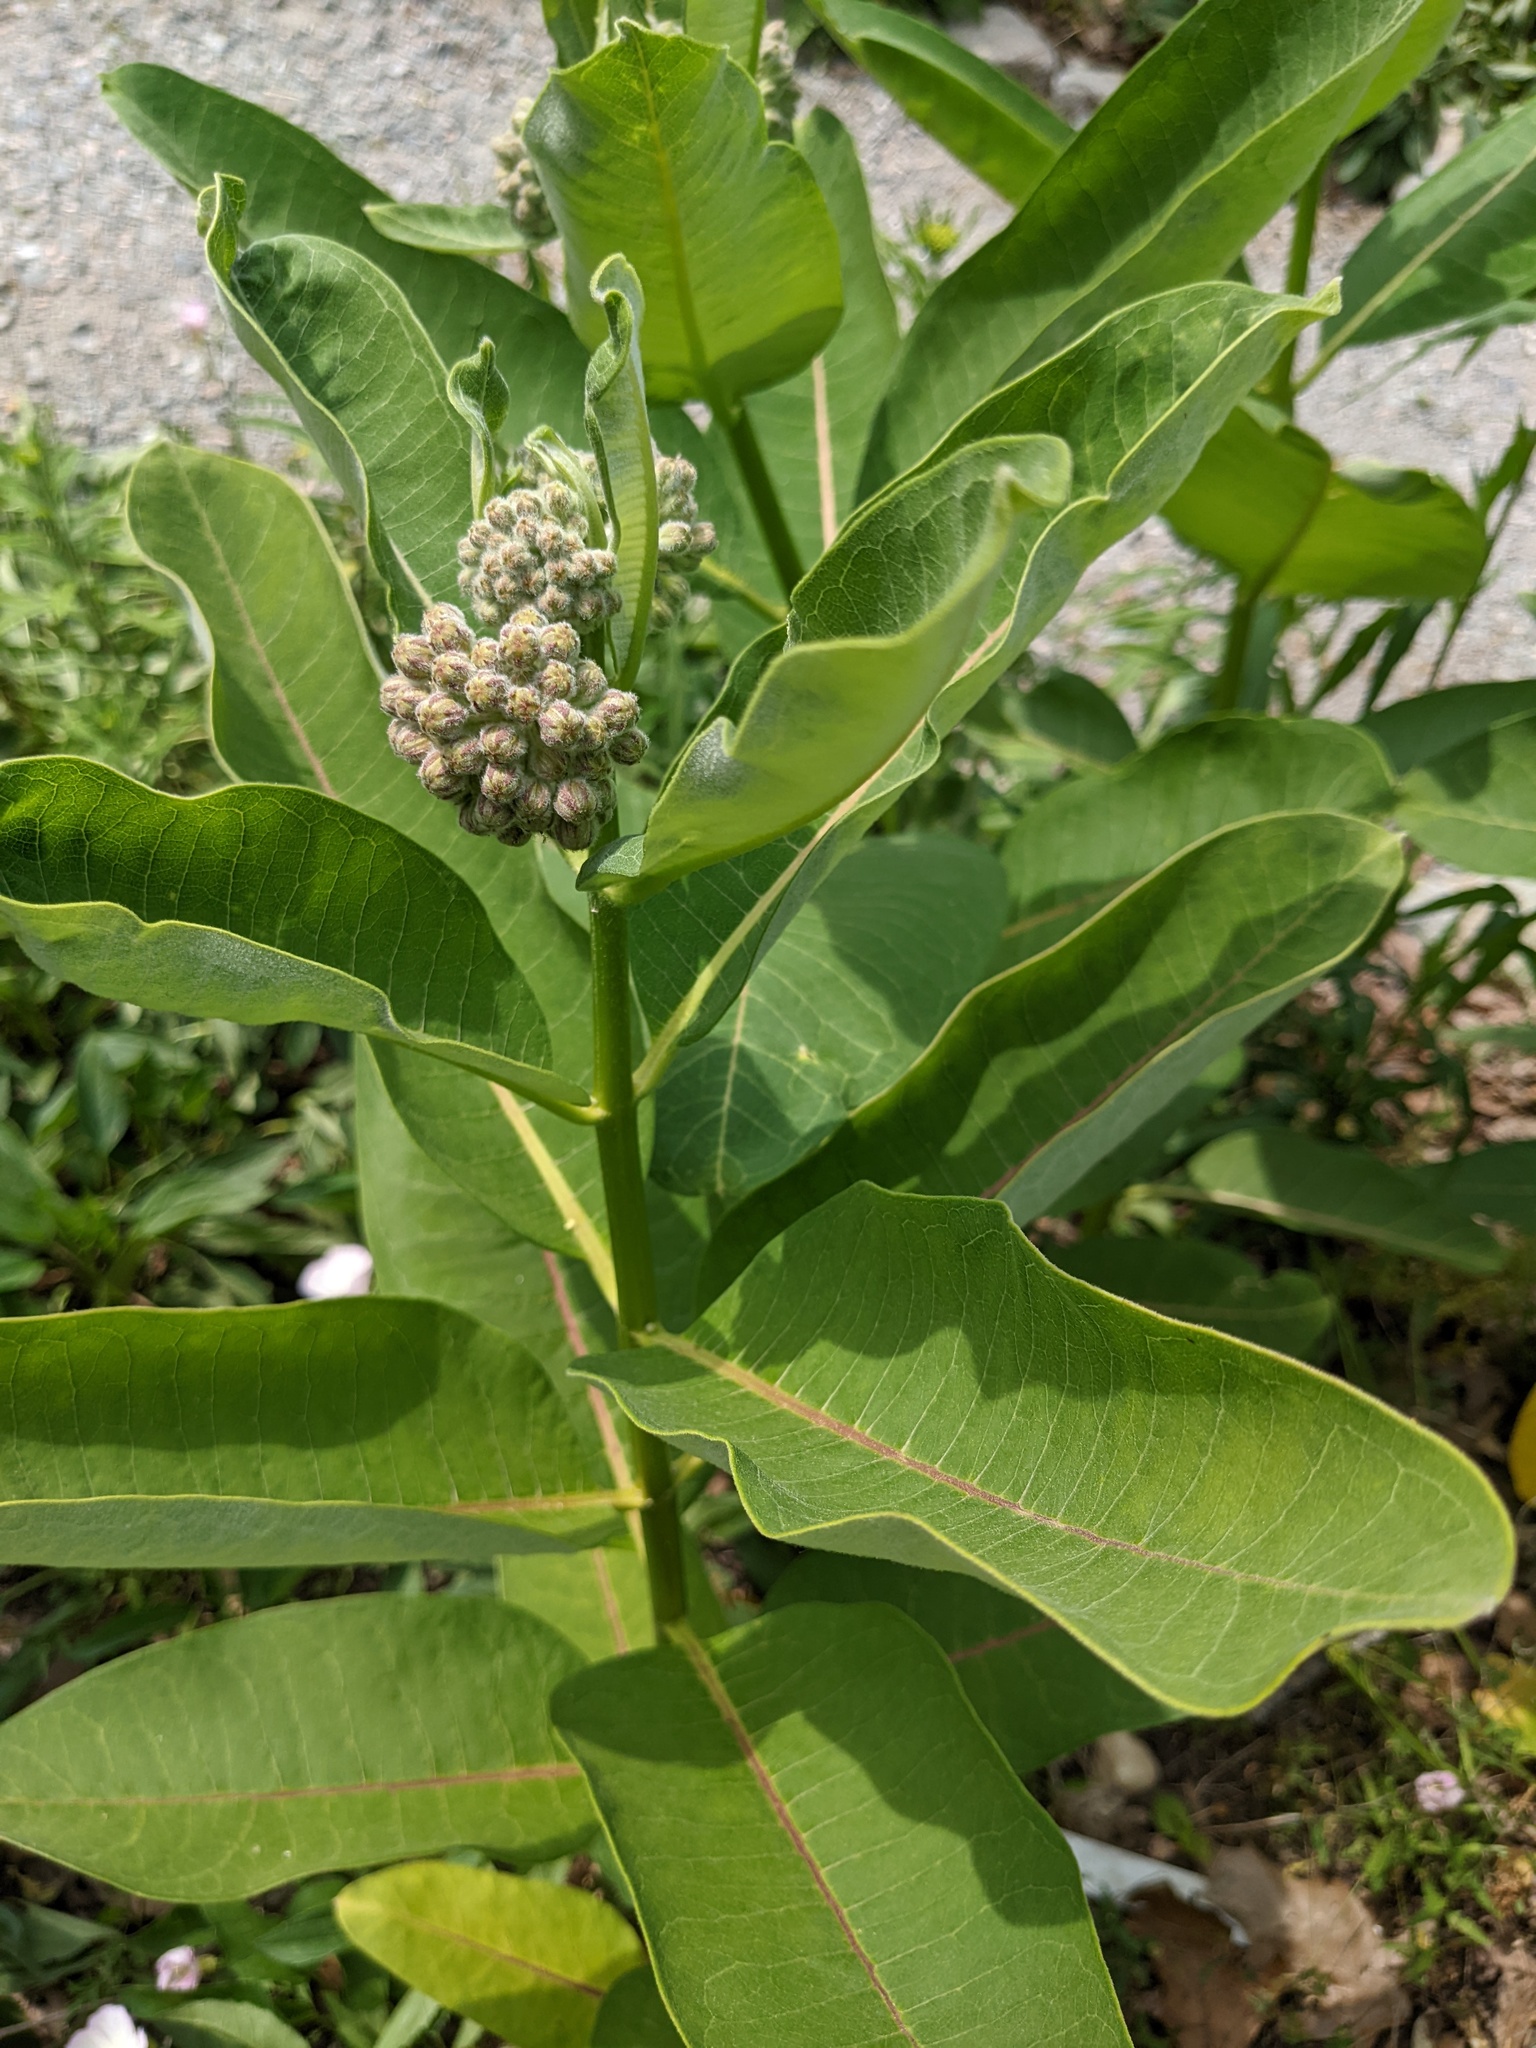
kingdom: Plantae
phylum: Tracheophyta
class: Magnoliopsida
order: Gentianales
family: Apocynaceae
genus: Asclepias
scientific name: Asclepias syriaca
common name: Common milkweed
